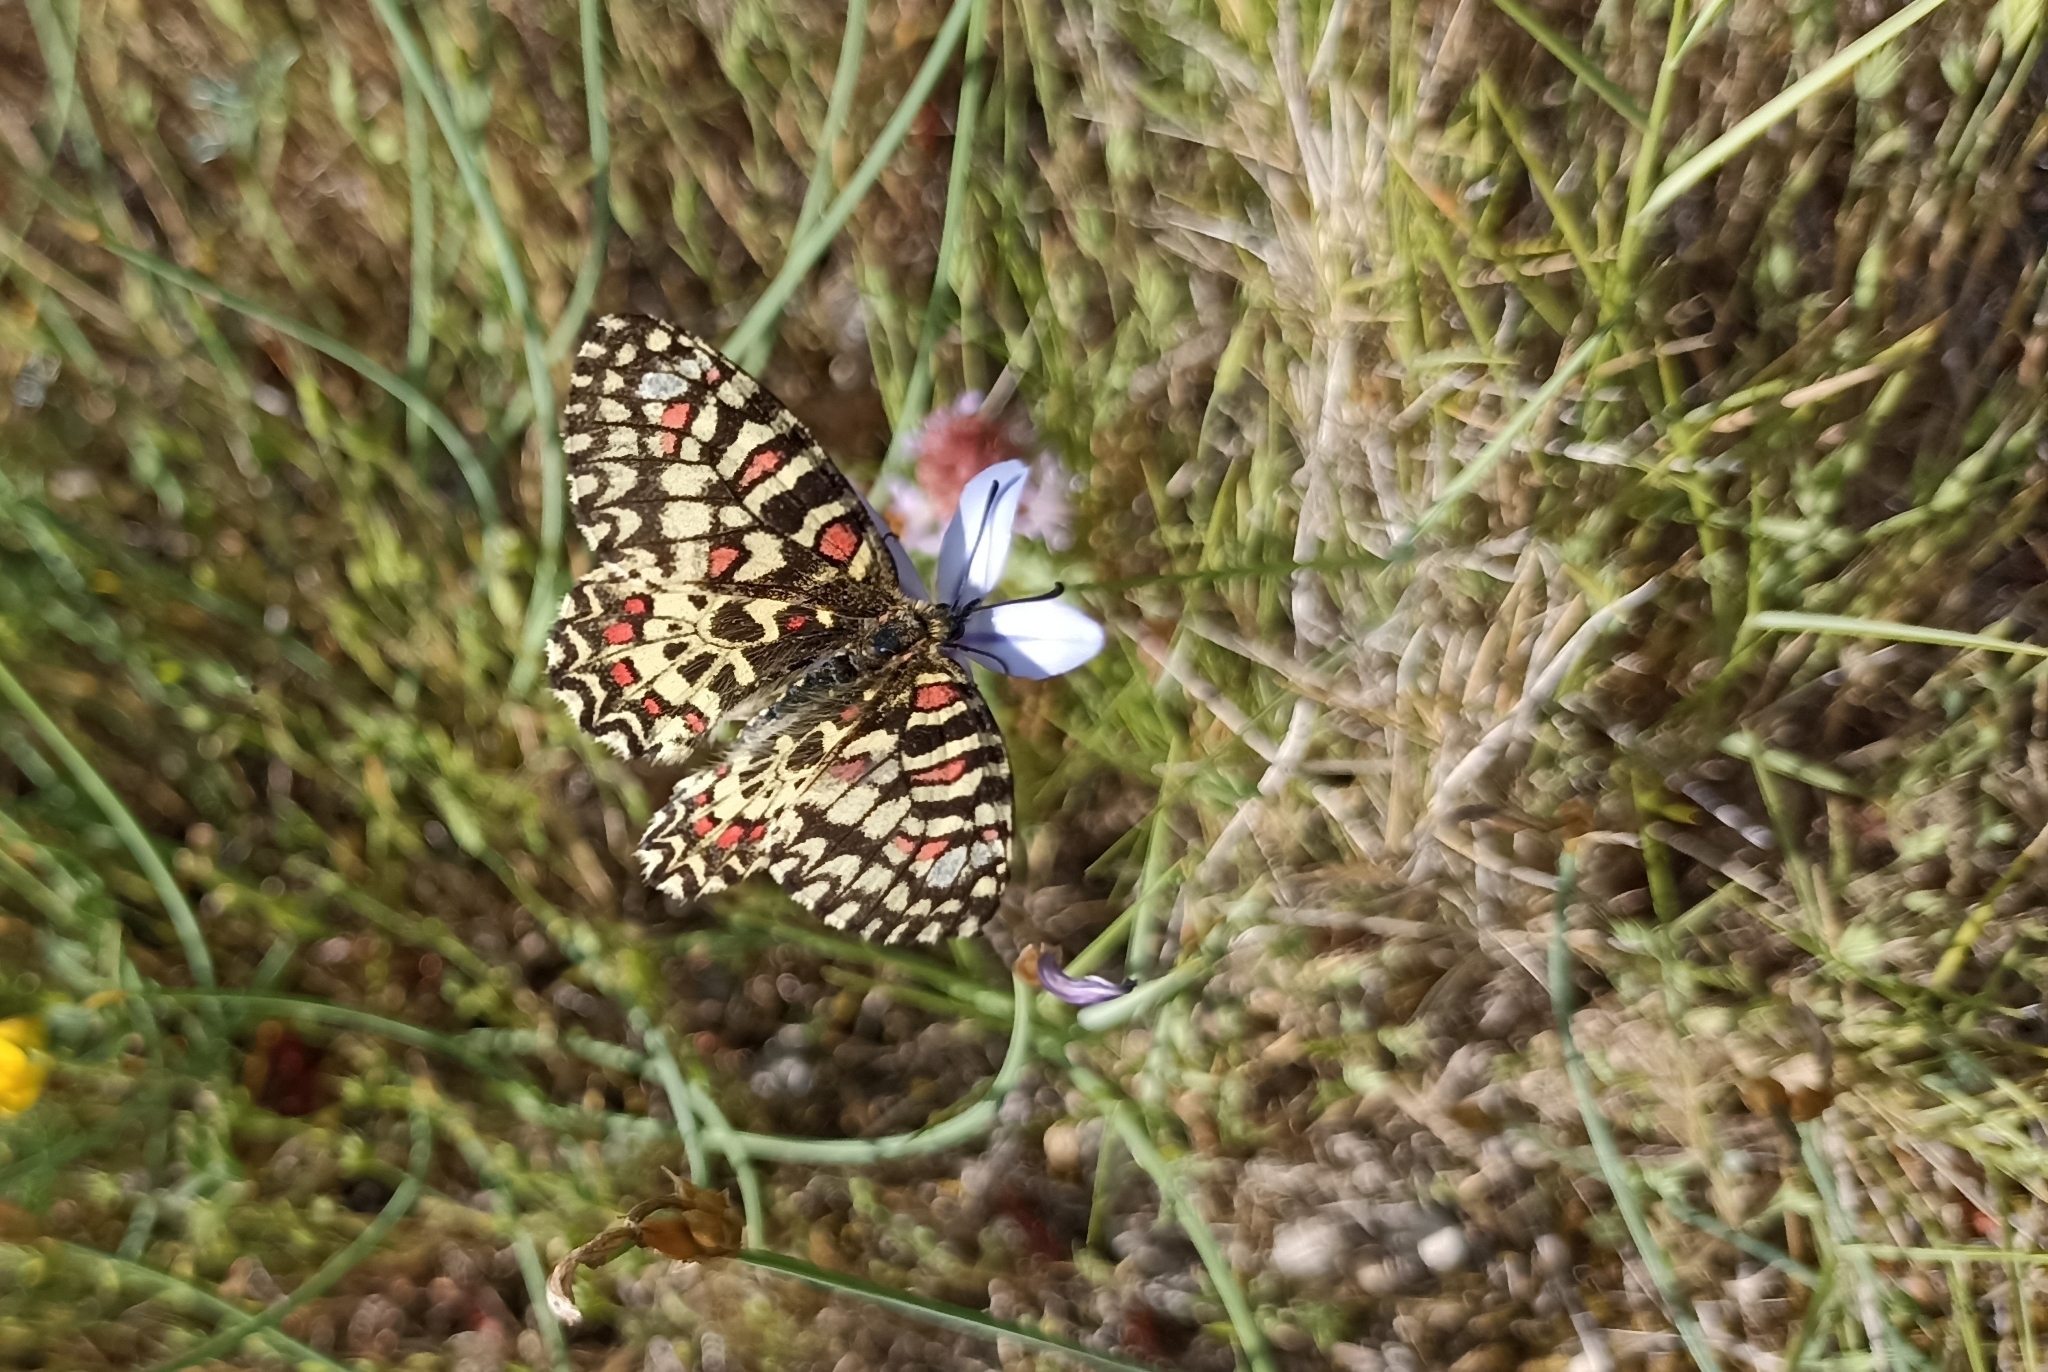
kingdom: Animalia
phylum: Arthropoda
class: Insecta
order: Lepidoptera
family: Papilionidae
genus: Zerynthia
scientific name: Zerynthia rumina
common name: Spanish festoon
